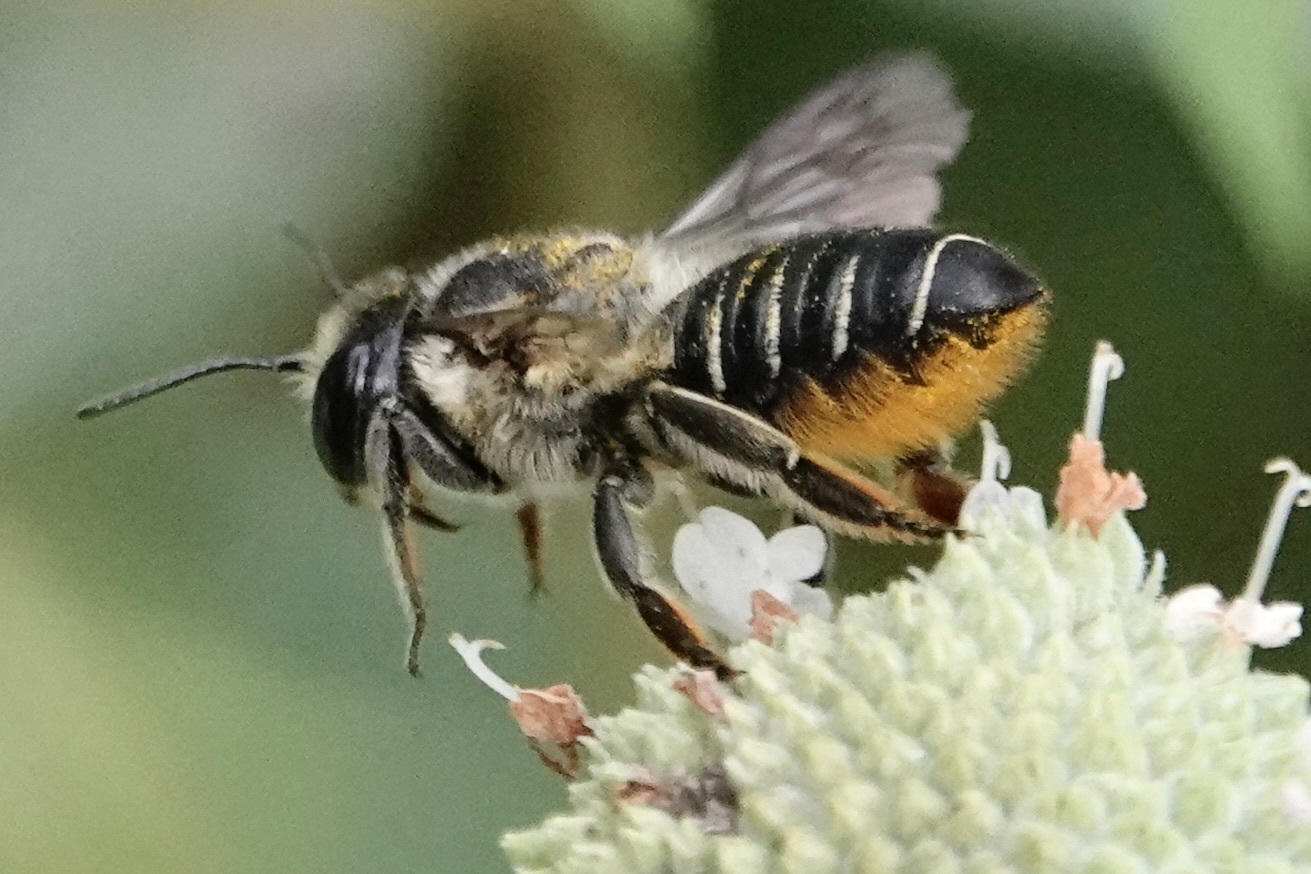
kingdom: Animalia
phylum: Arthropoda
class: Insecta
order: Hymenoptera
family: Megachilidae
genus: Megachile
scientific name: Megachile mendica
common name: Flat-tailed leafcutter
